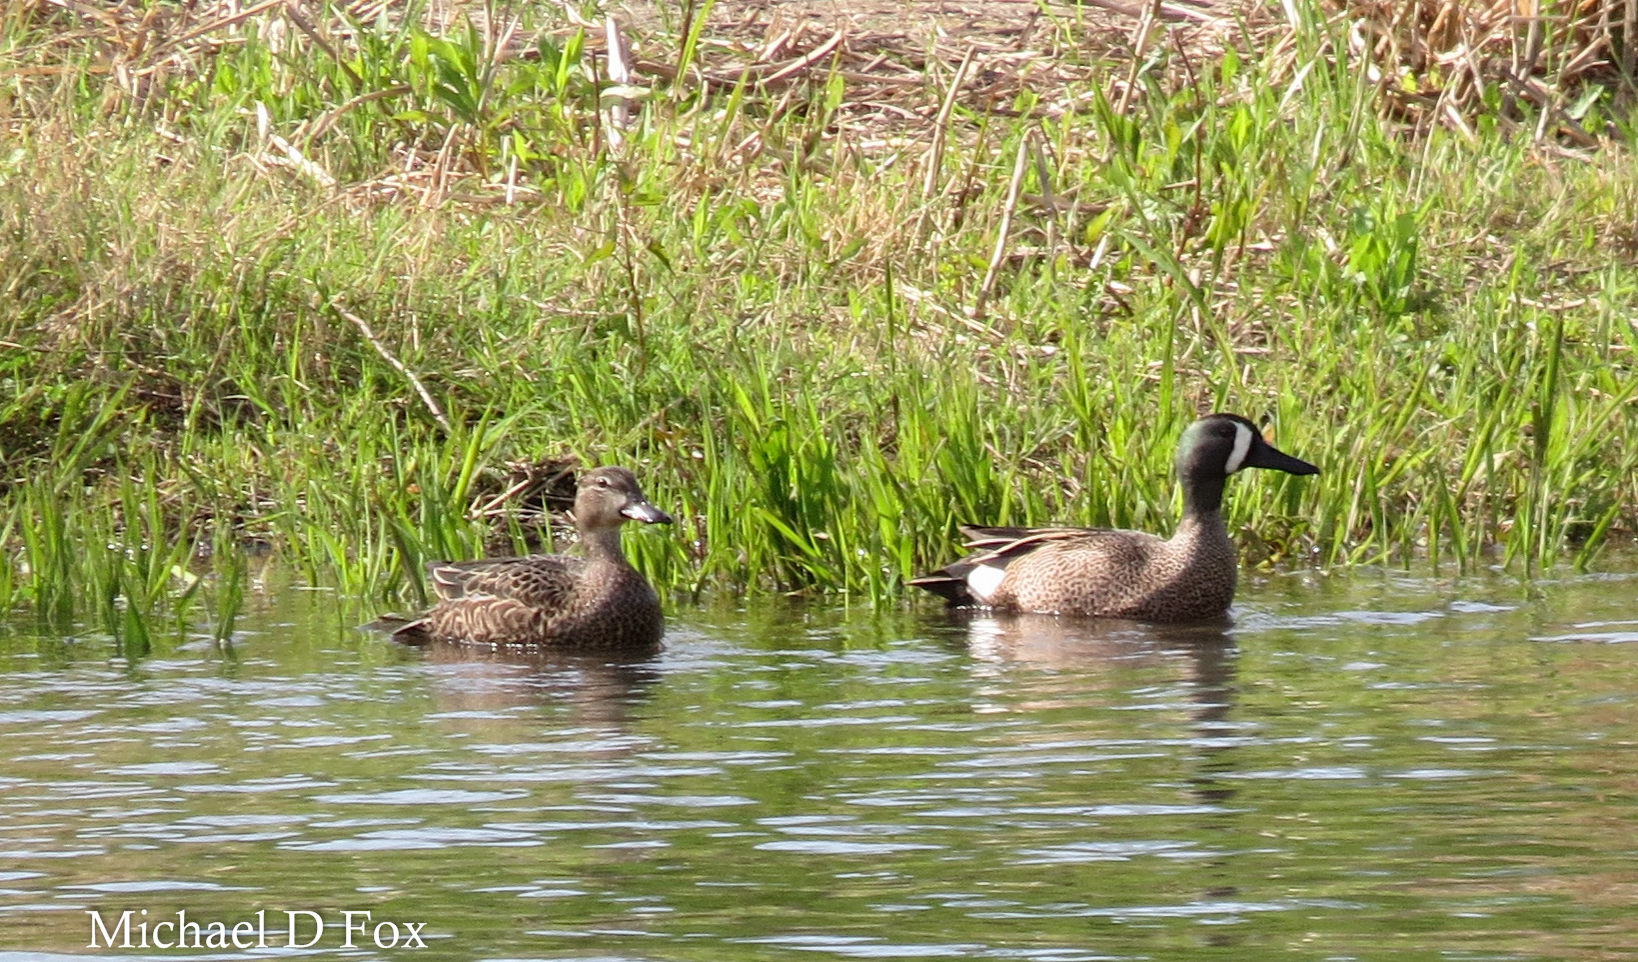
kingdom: Animalia
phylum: Chordata
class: Aves
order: Anseriformes
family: Anatidae
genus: Spatula
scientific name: Spatula discors
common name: Blue-winged teal
